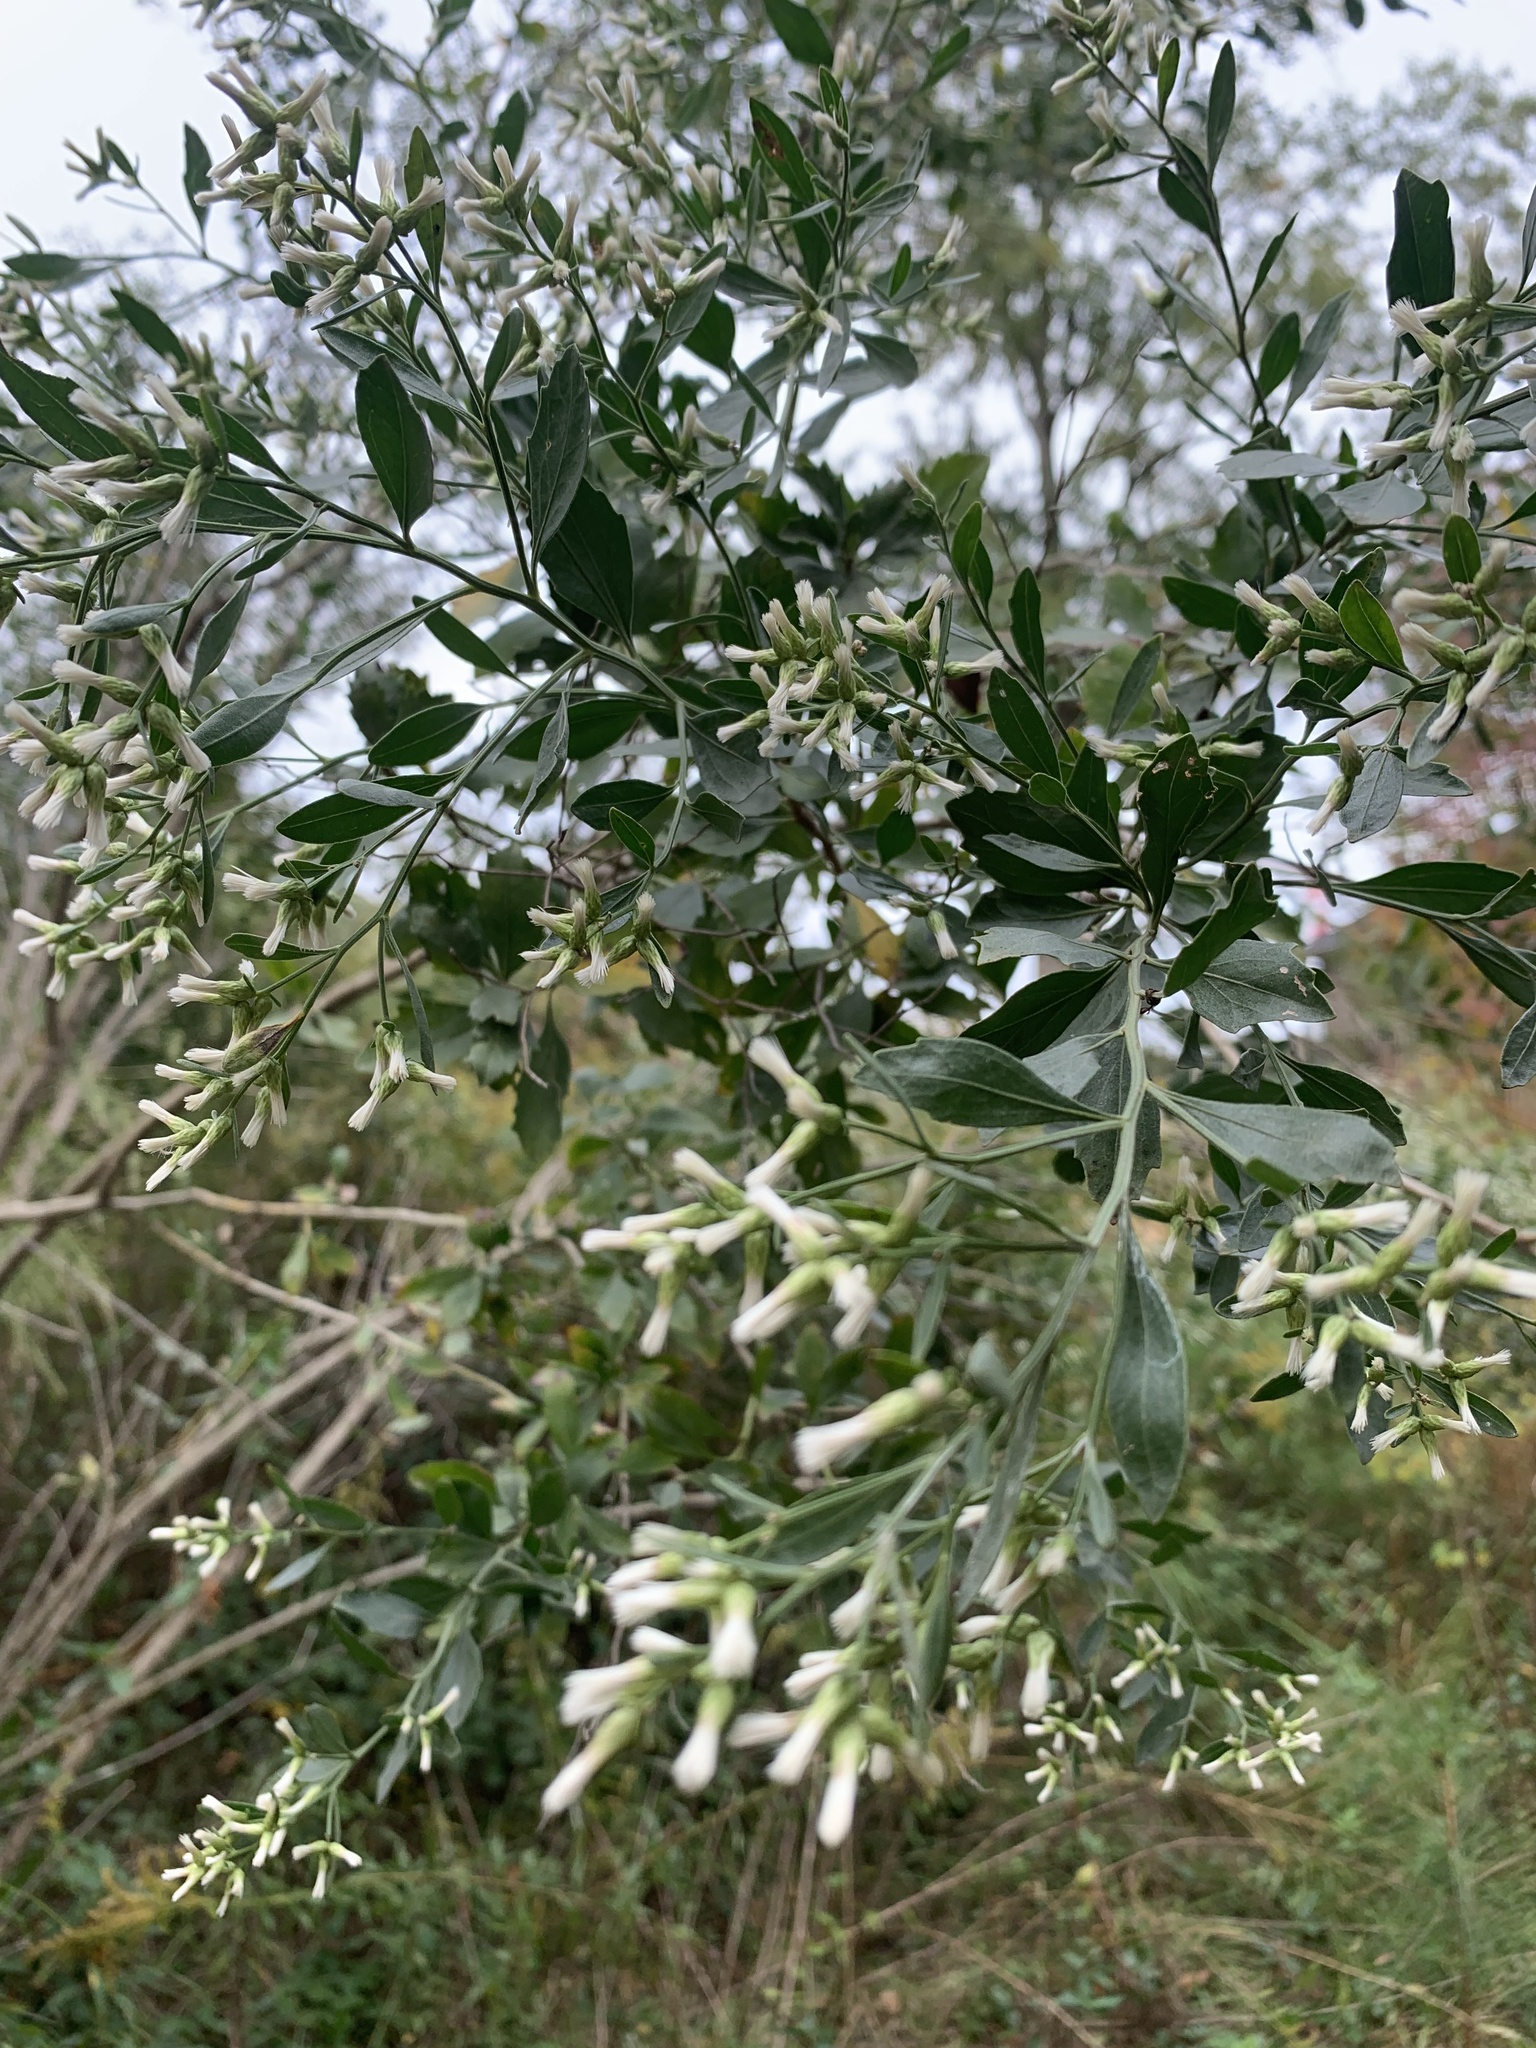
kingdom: Plantae
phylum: Tracheophyta
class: Magnoliopsida
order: Asterales
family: Asteraceae
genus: Baccharis
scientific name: Baccharis halimifolia
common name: Eastern baccharis
